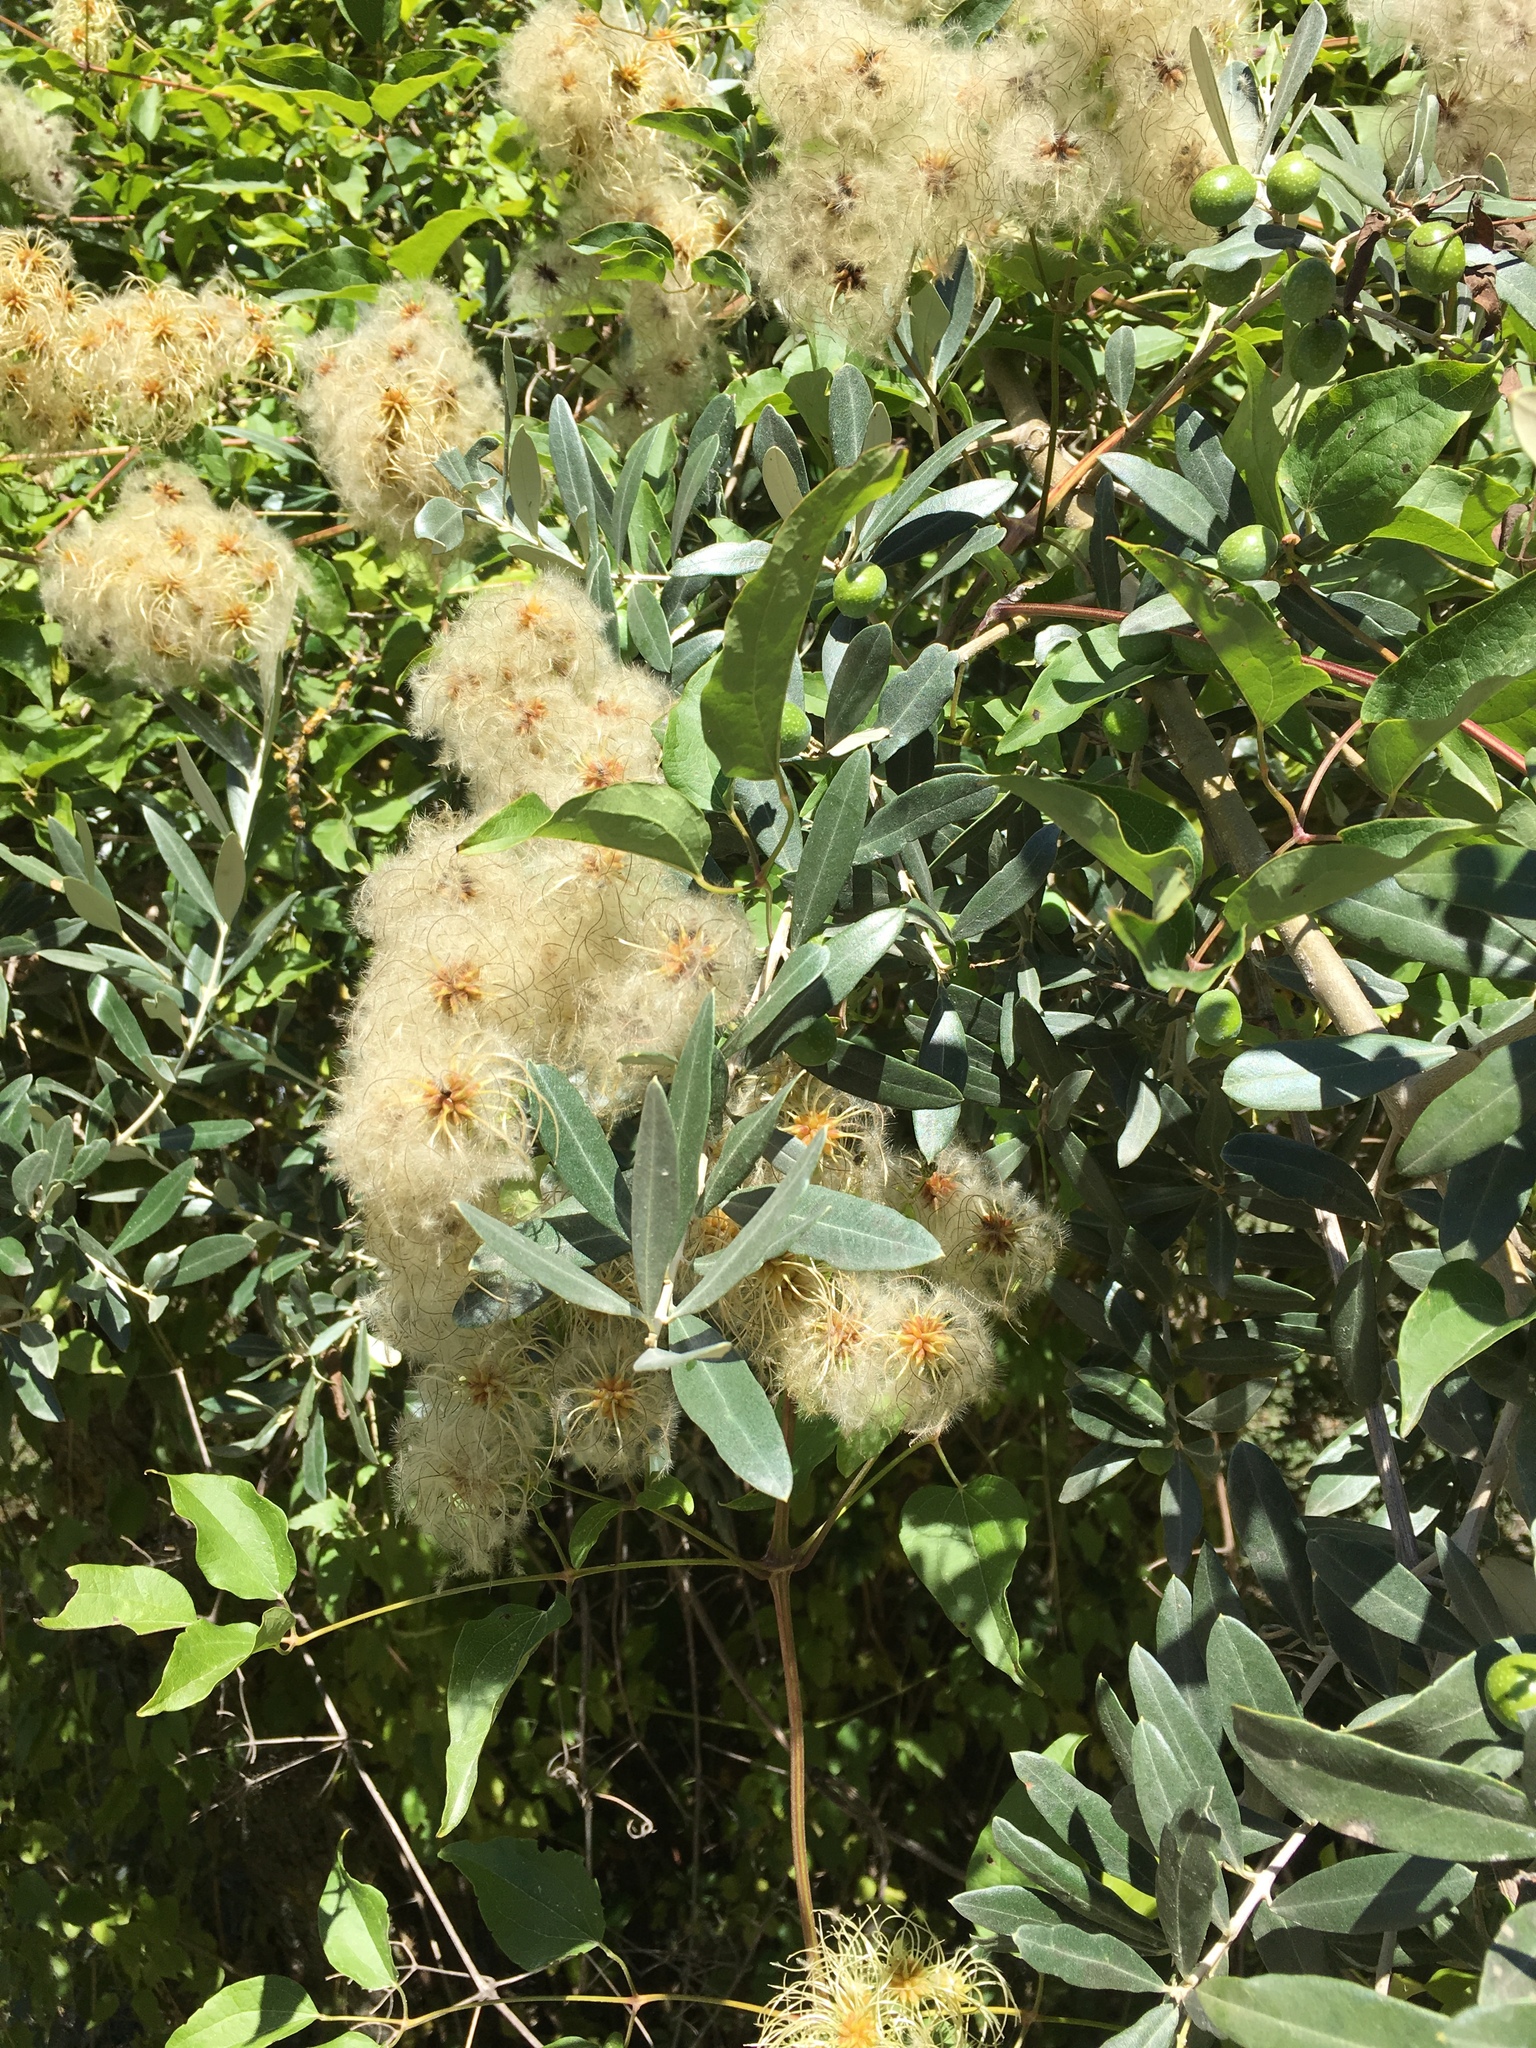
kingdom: Plantae
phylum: Tracheophyta
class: Magnoliopsida
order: Ranunculales
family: Ranunculaceae
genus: Clematis
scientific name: Clematis vitalba
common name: Evergreen clematis
